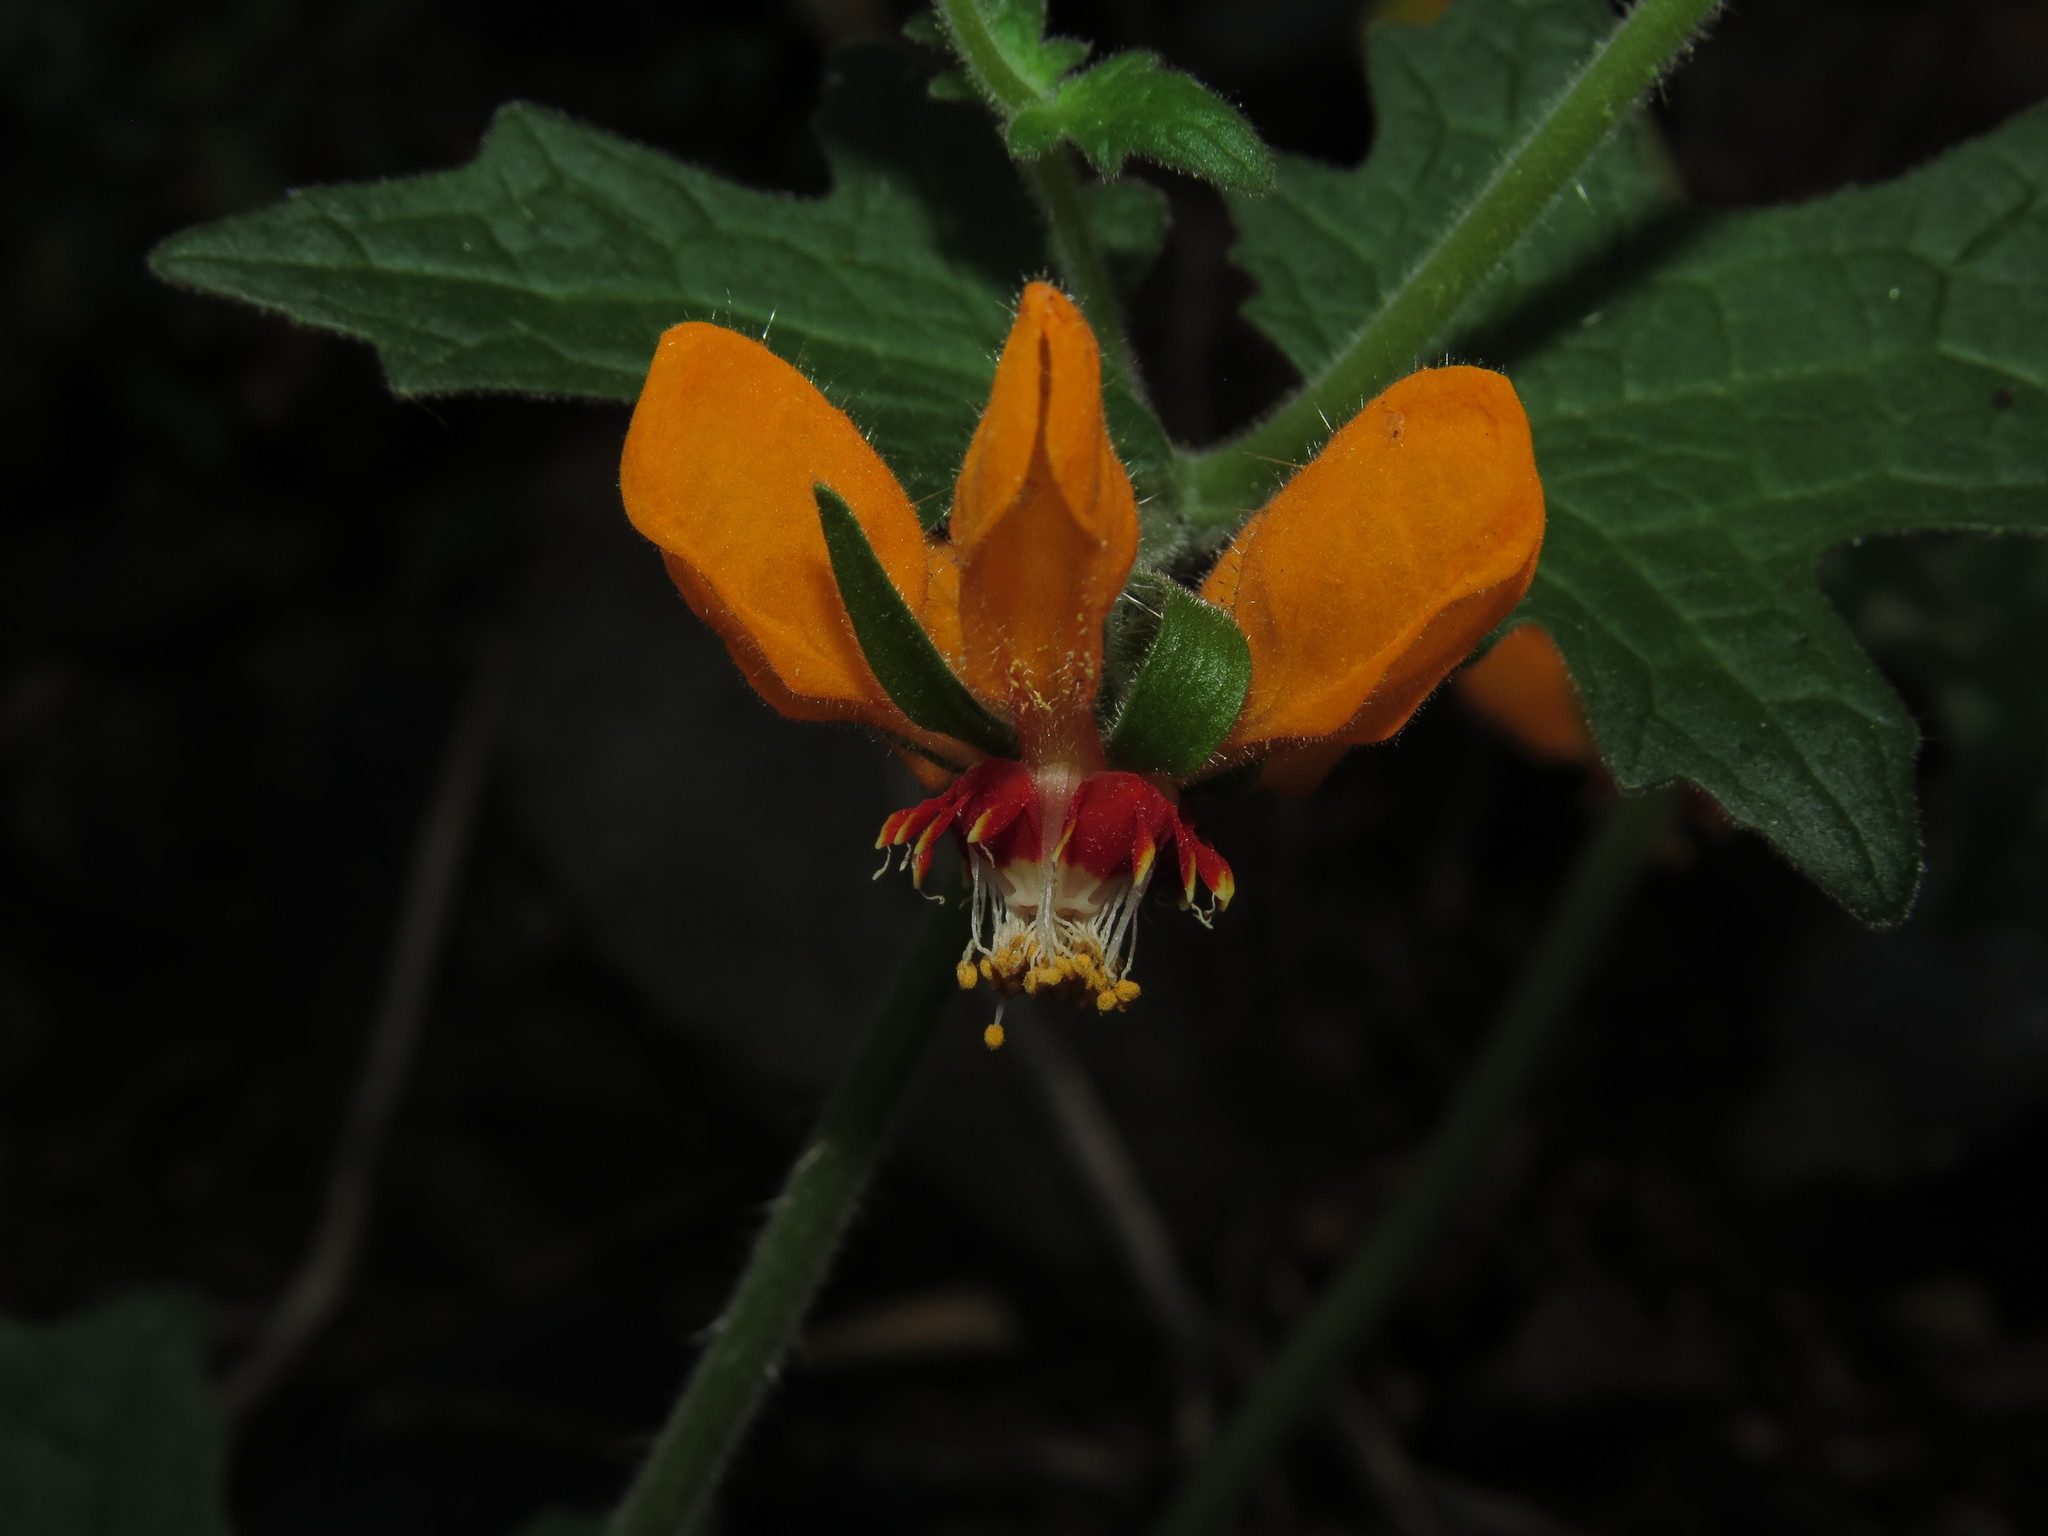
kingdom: Plantae
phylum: Tracheophyta
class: Magnoliopsida
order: Cornales
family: Loasaceae
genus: Loasa
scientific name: Loasa acerifolia
